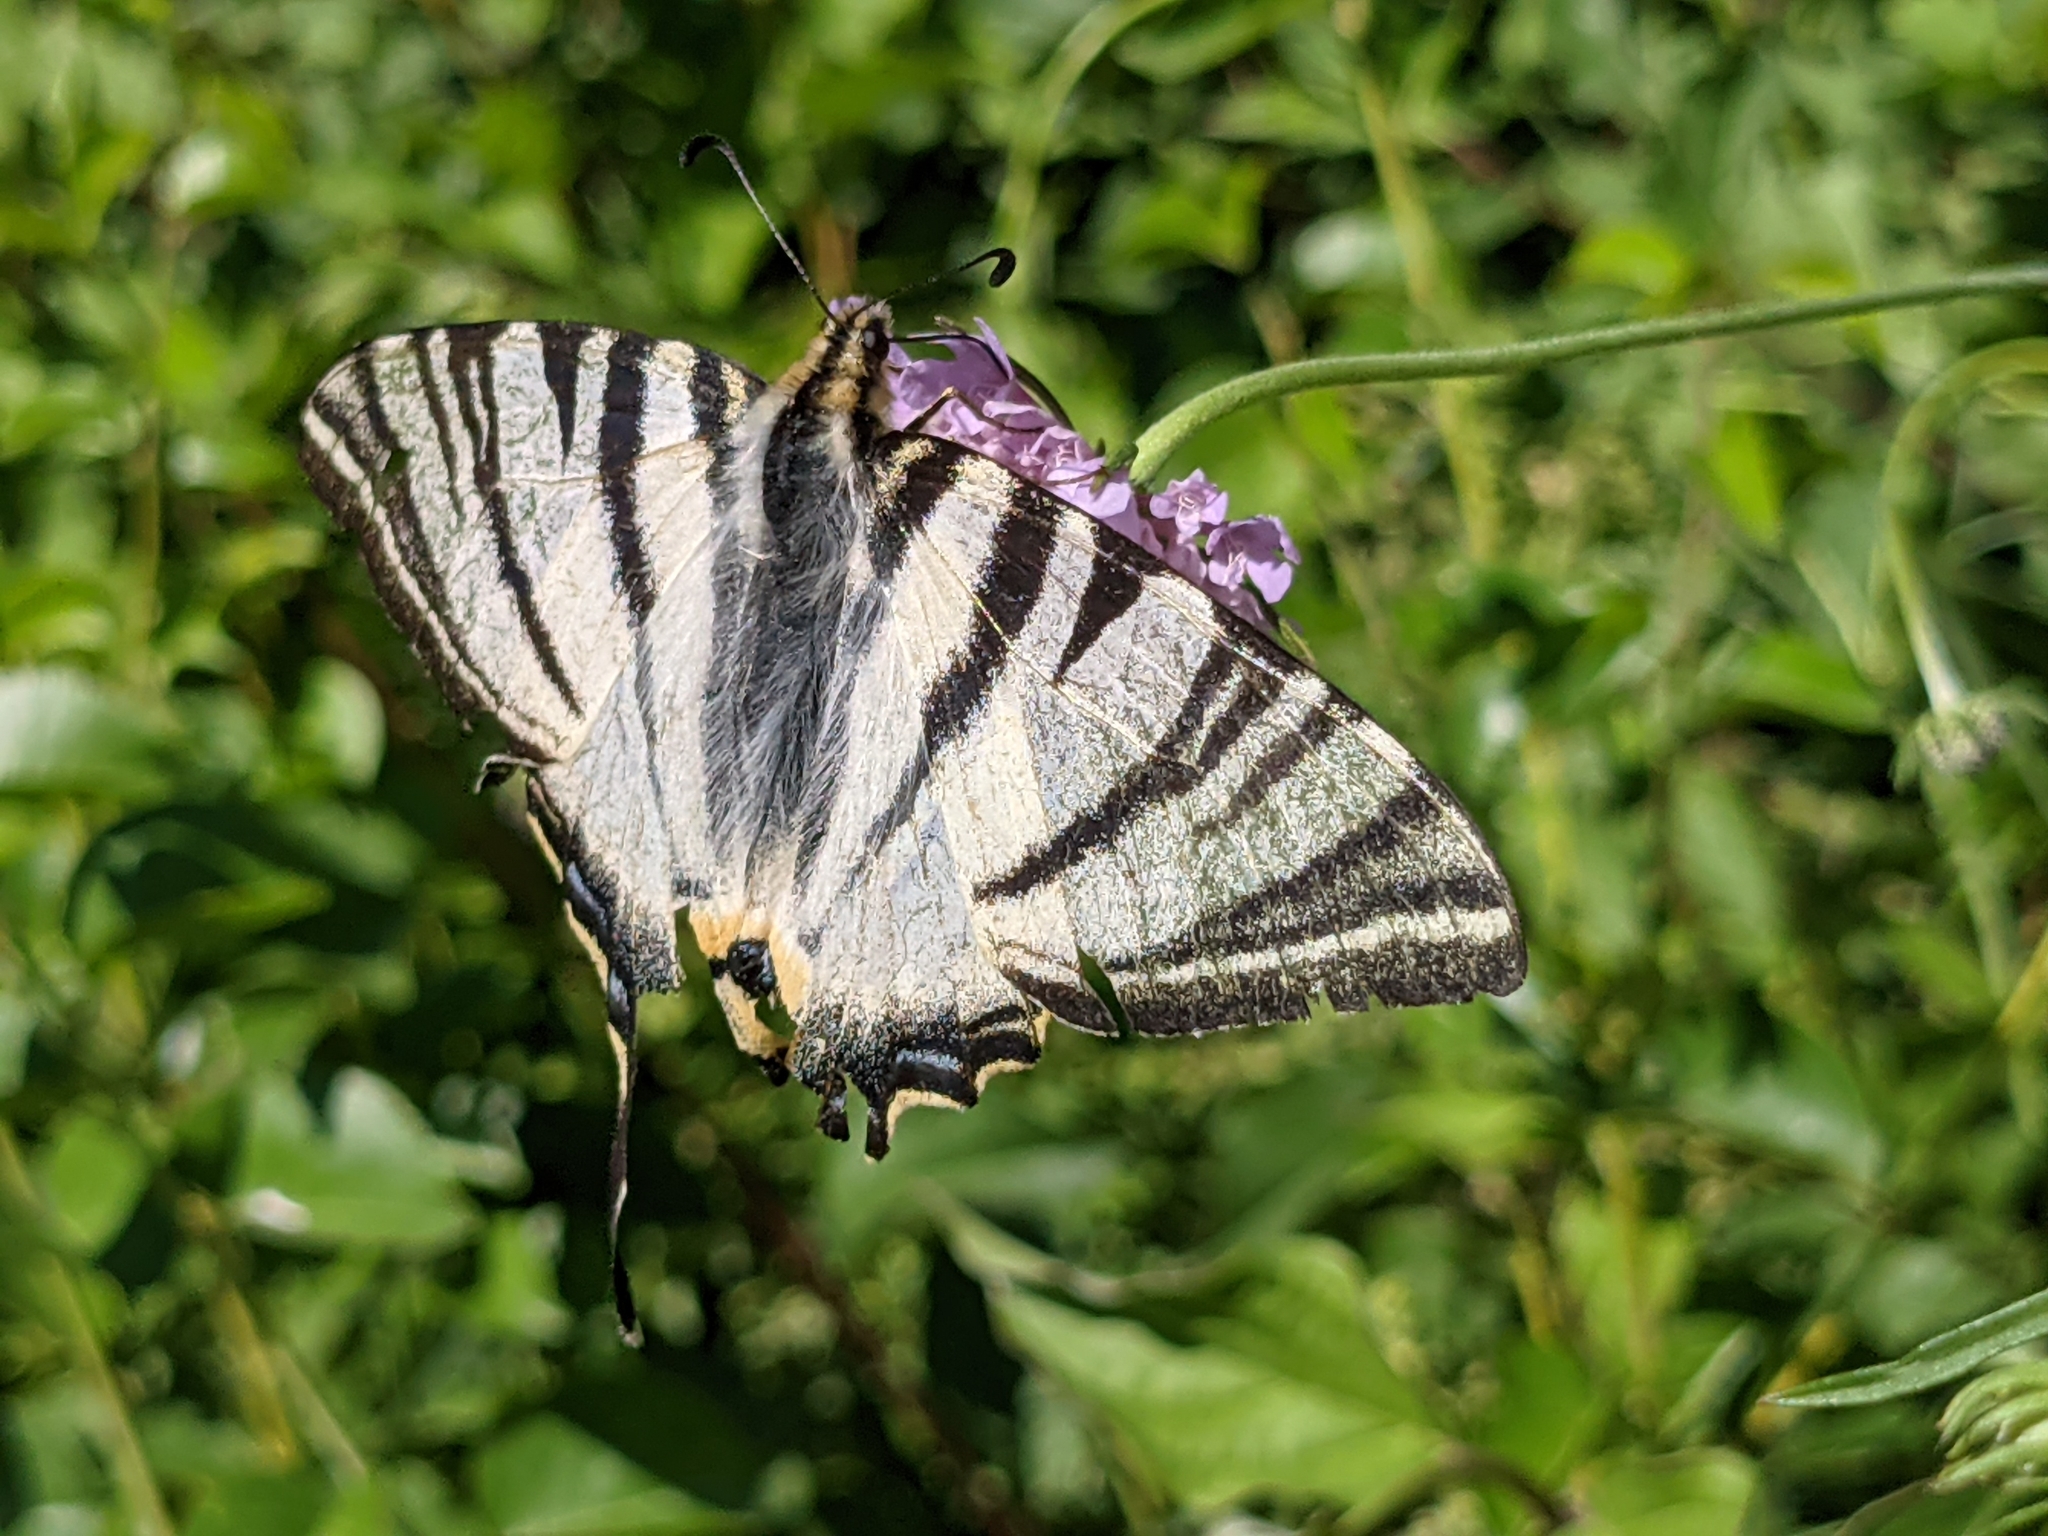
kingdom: Animalia
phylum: Arthropoda
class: Insecta
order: Lepidoptera
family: Papilionidae
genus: Iphiclides
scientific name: Iphiclides podalirius
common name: Scarce swallowtail
